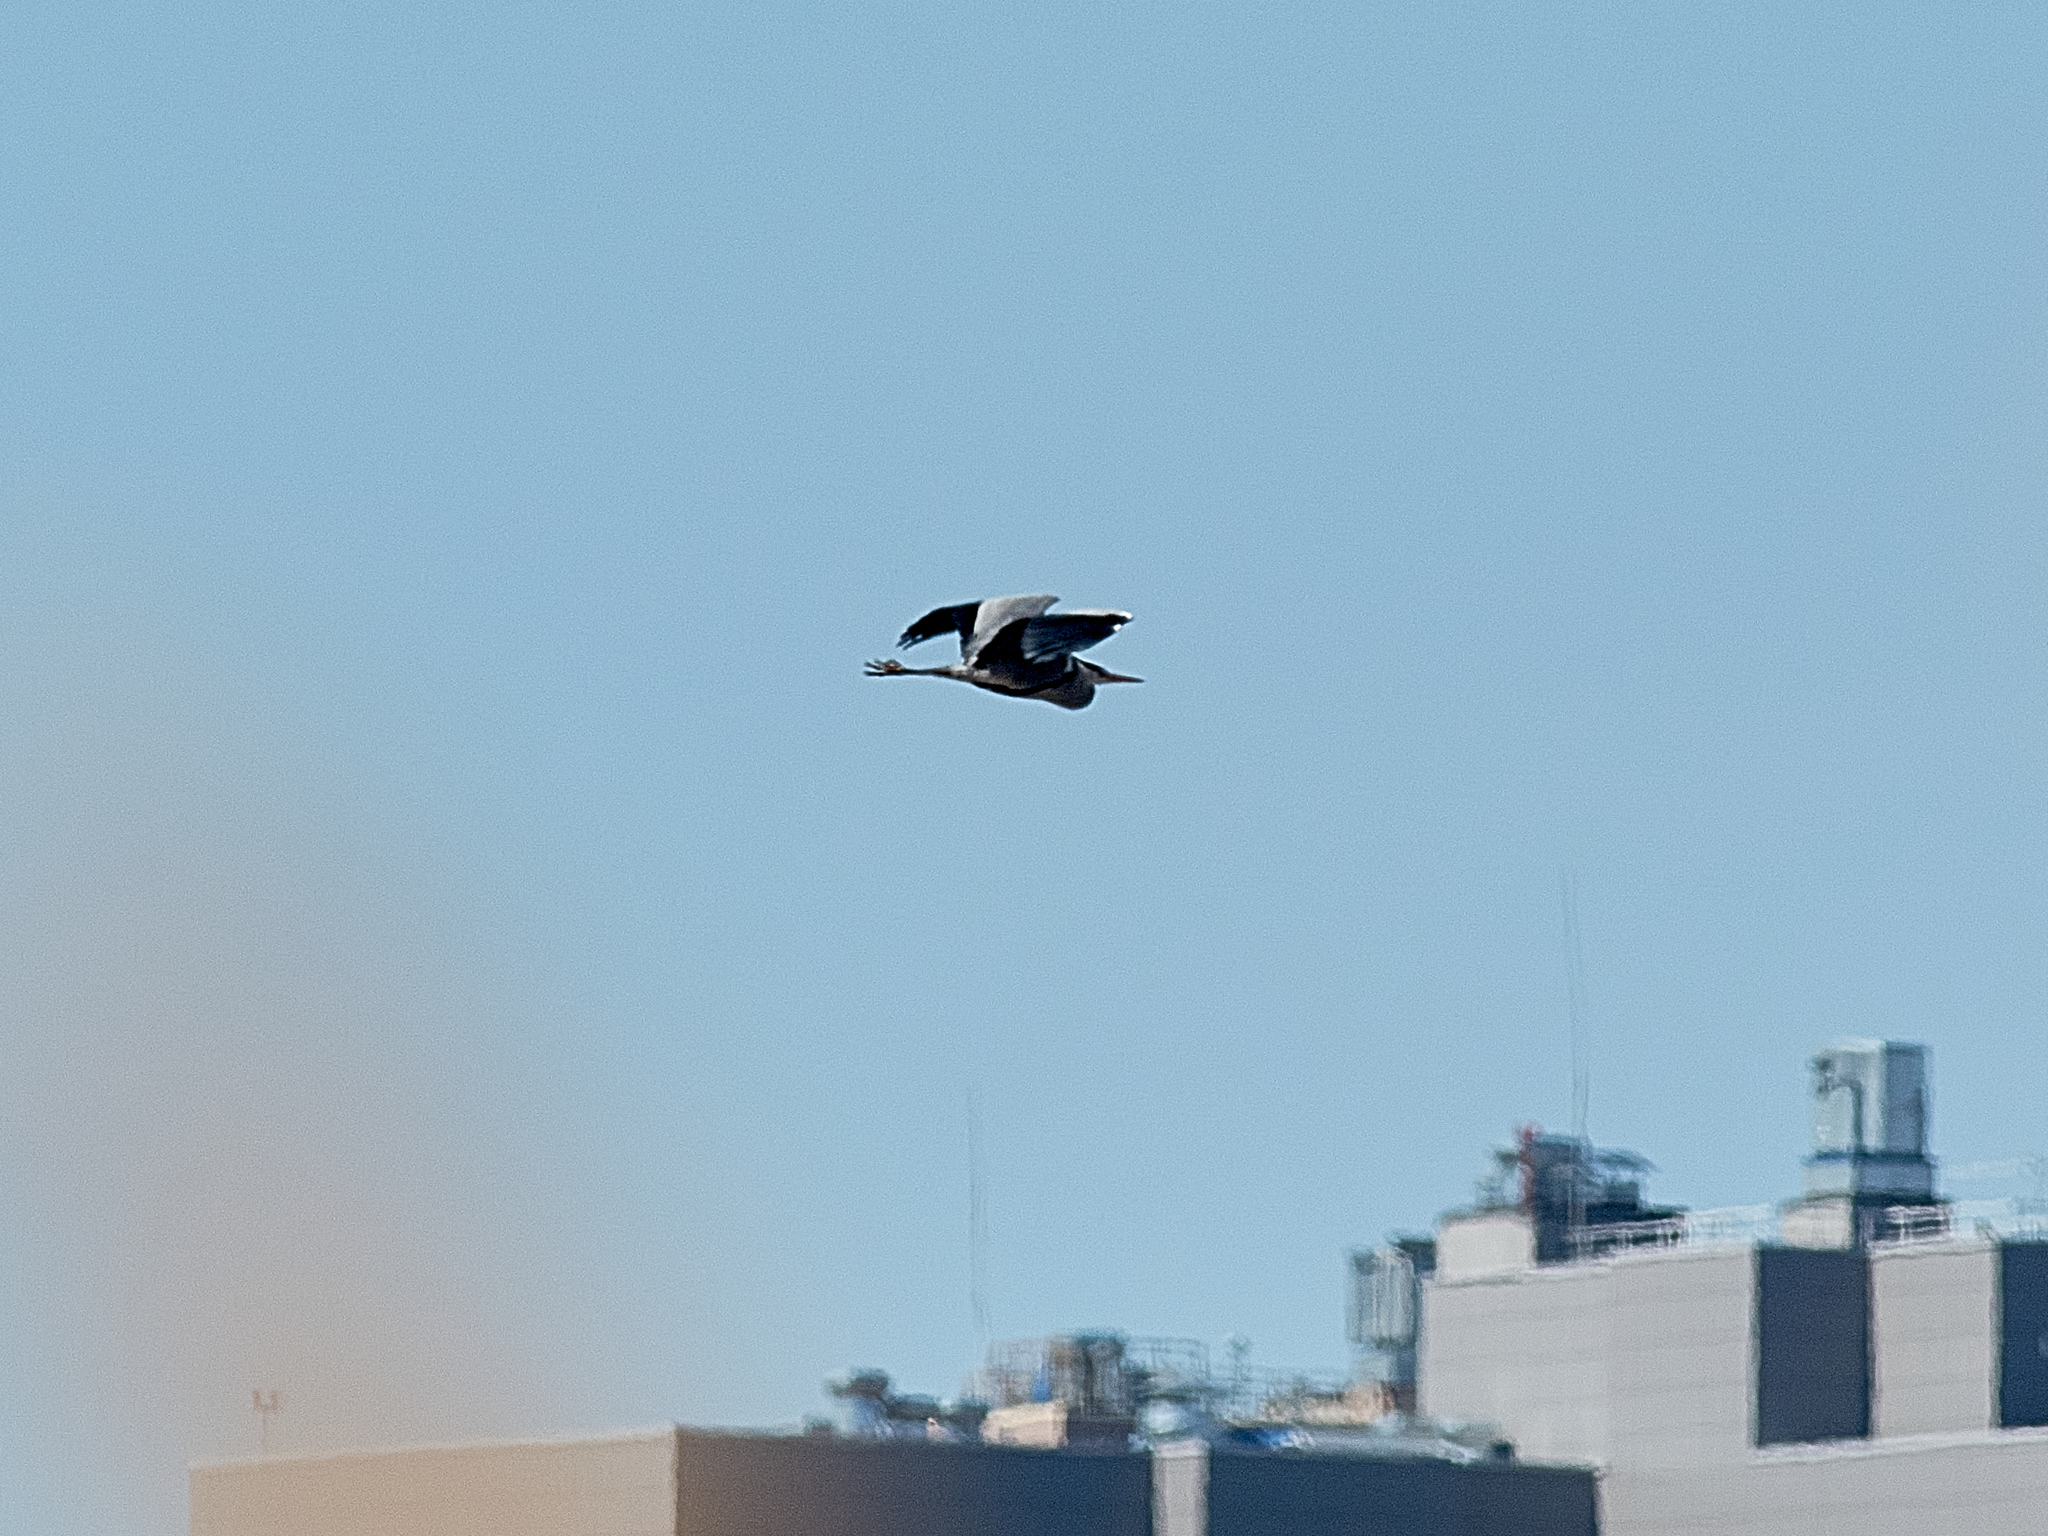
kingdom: Animalia
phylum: Chordata
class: Aves
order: Pelecaniformes
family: Ardeidae
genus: Ardea
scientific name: Ardea cinerea
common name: Grey heron
